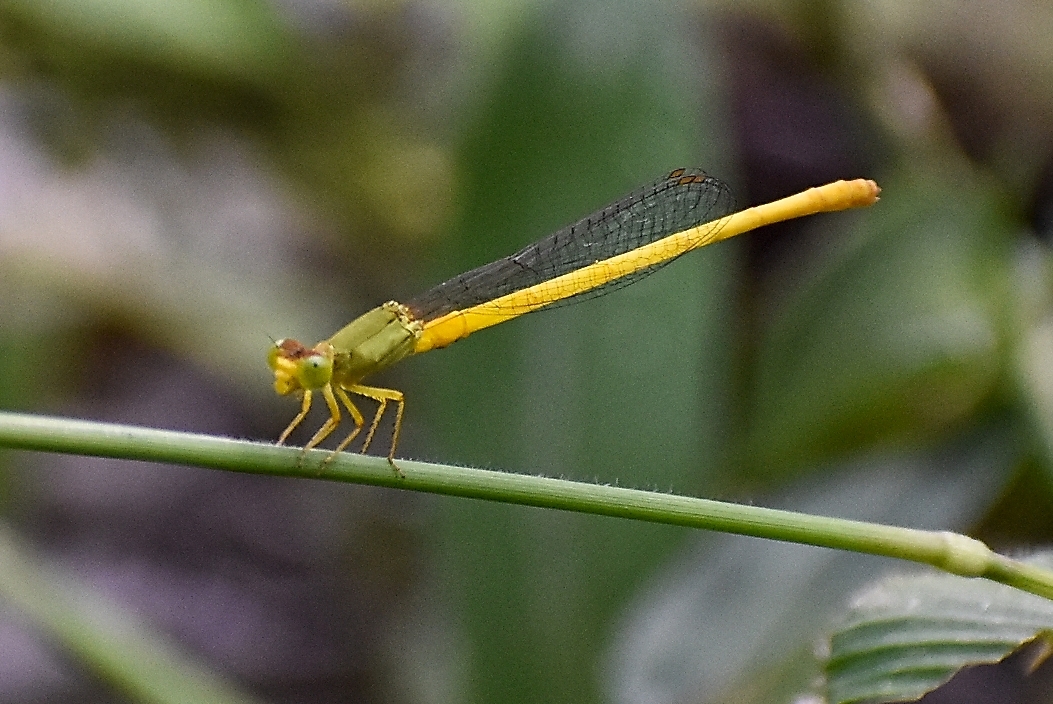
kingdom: Animalia
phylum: Arthropoda
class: Insecta
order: Odonata
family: Coenagrionidae
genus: Ceriagrion
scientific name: Ceriagrion coromandelianum
